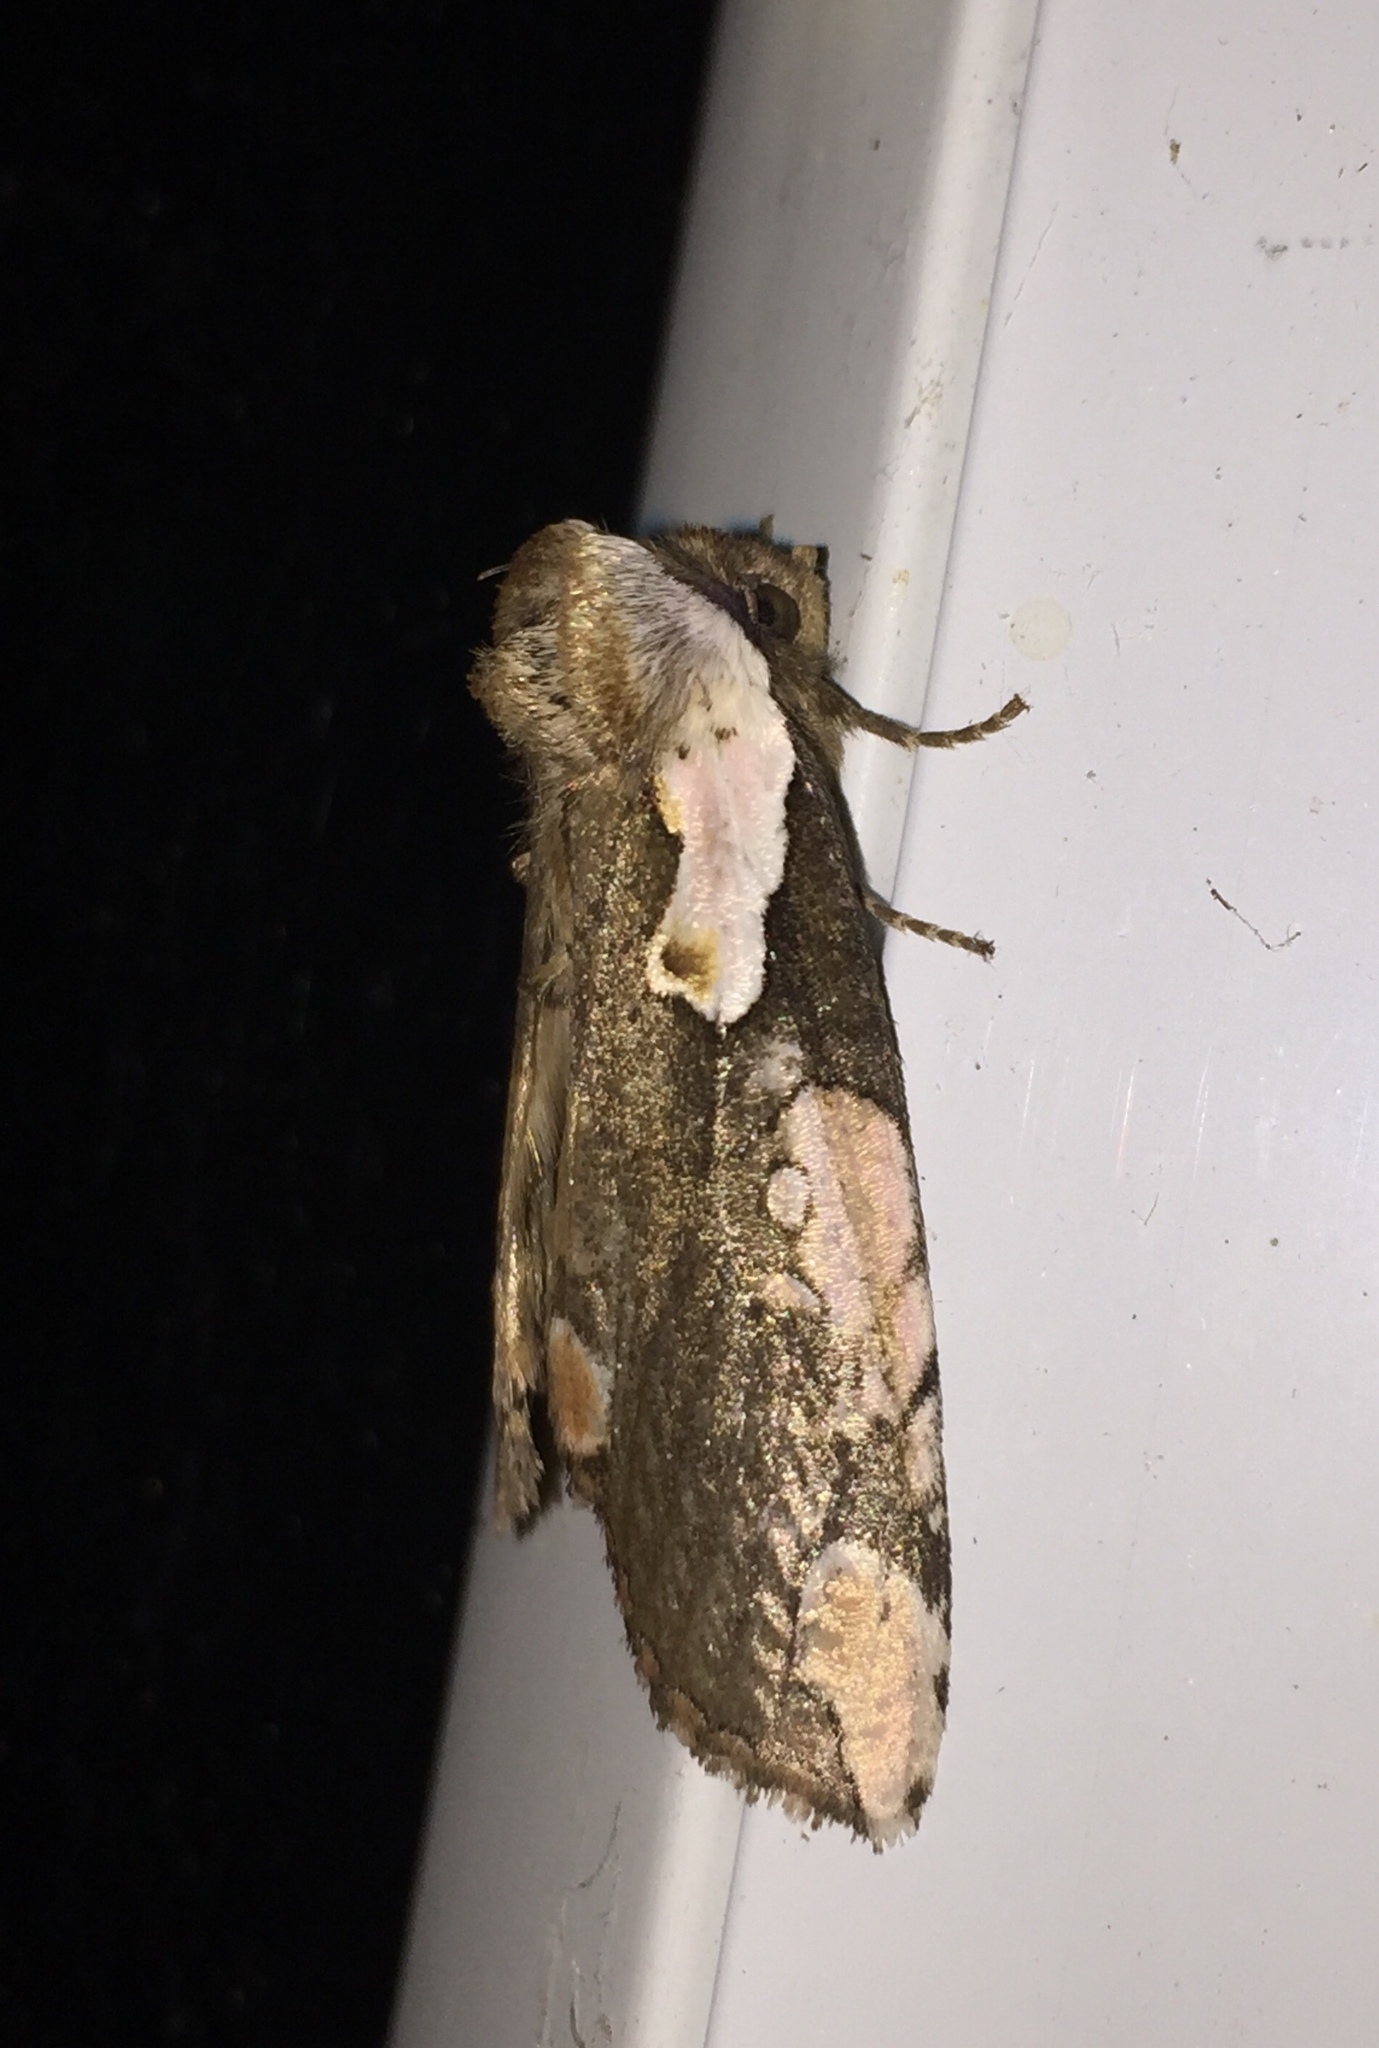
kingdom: Animalia
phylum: Arthropoda
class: Insecta
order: Lepidoptera
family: Drepanidae
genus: Euthyatira
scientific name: Euthyatira pudens
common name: Dogwood thyatirid moth
